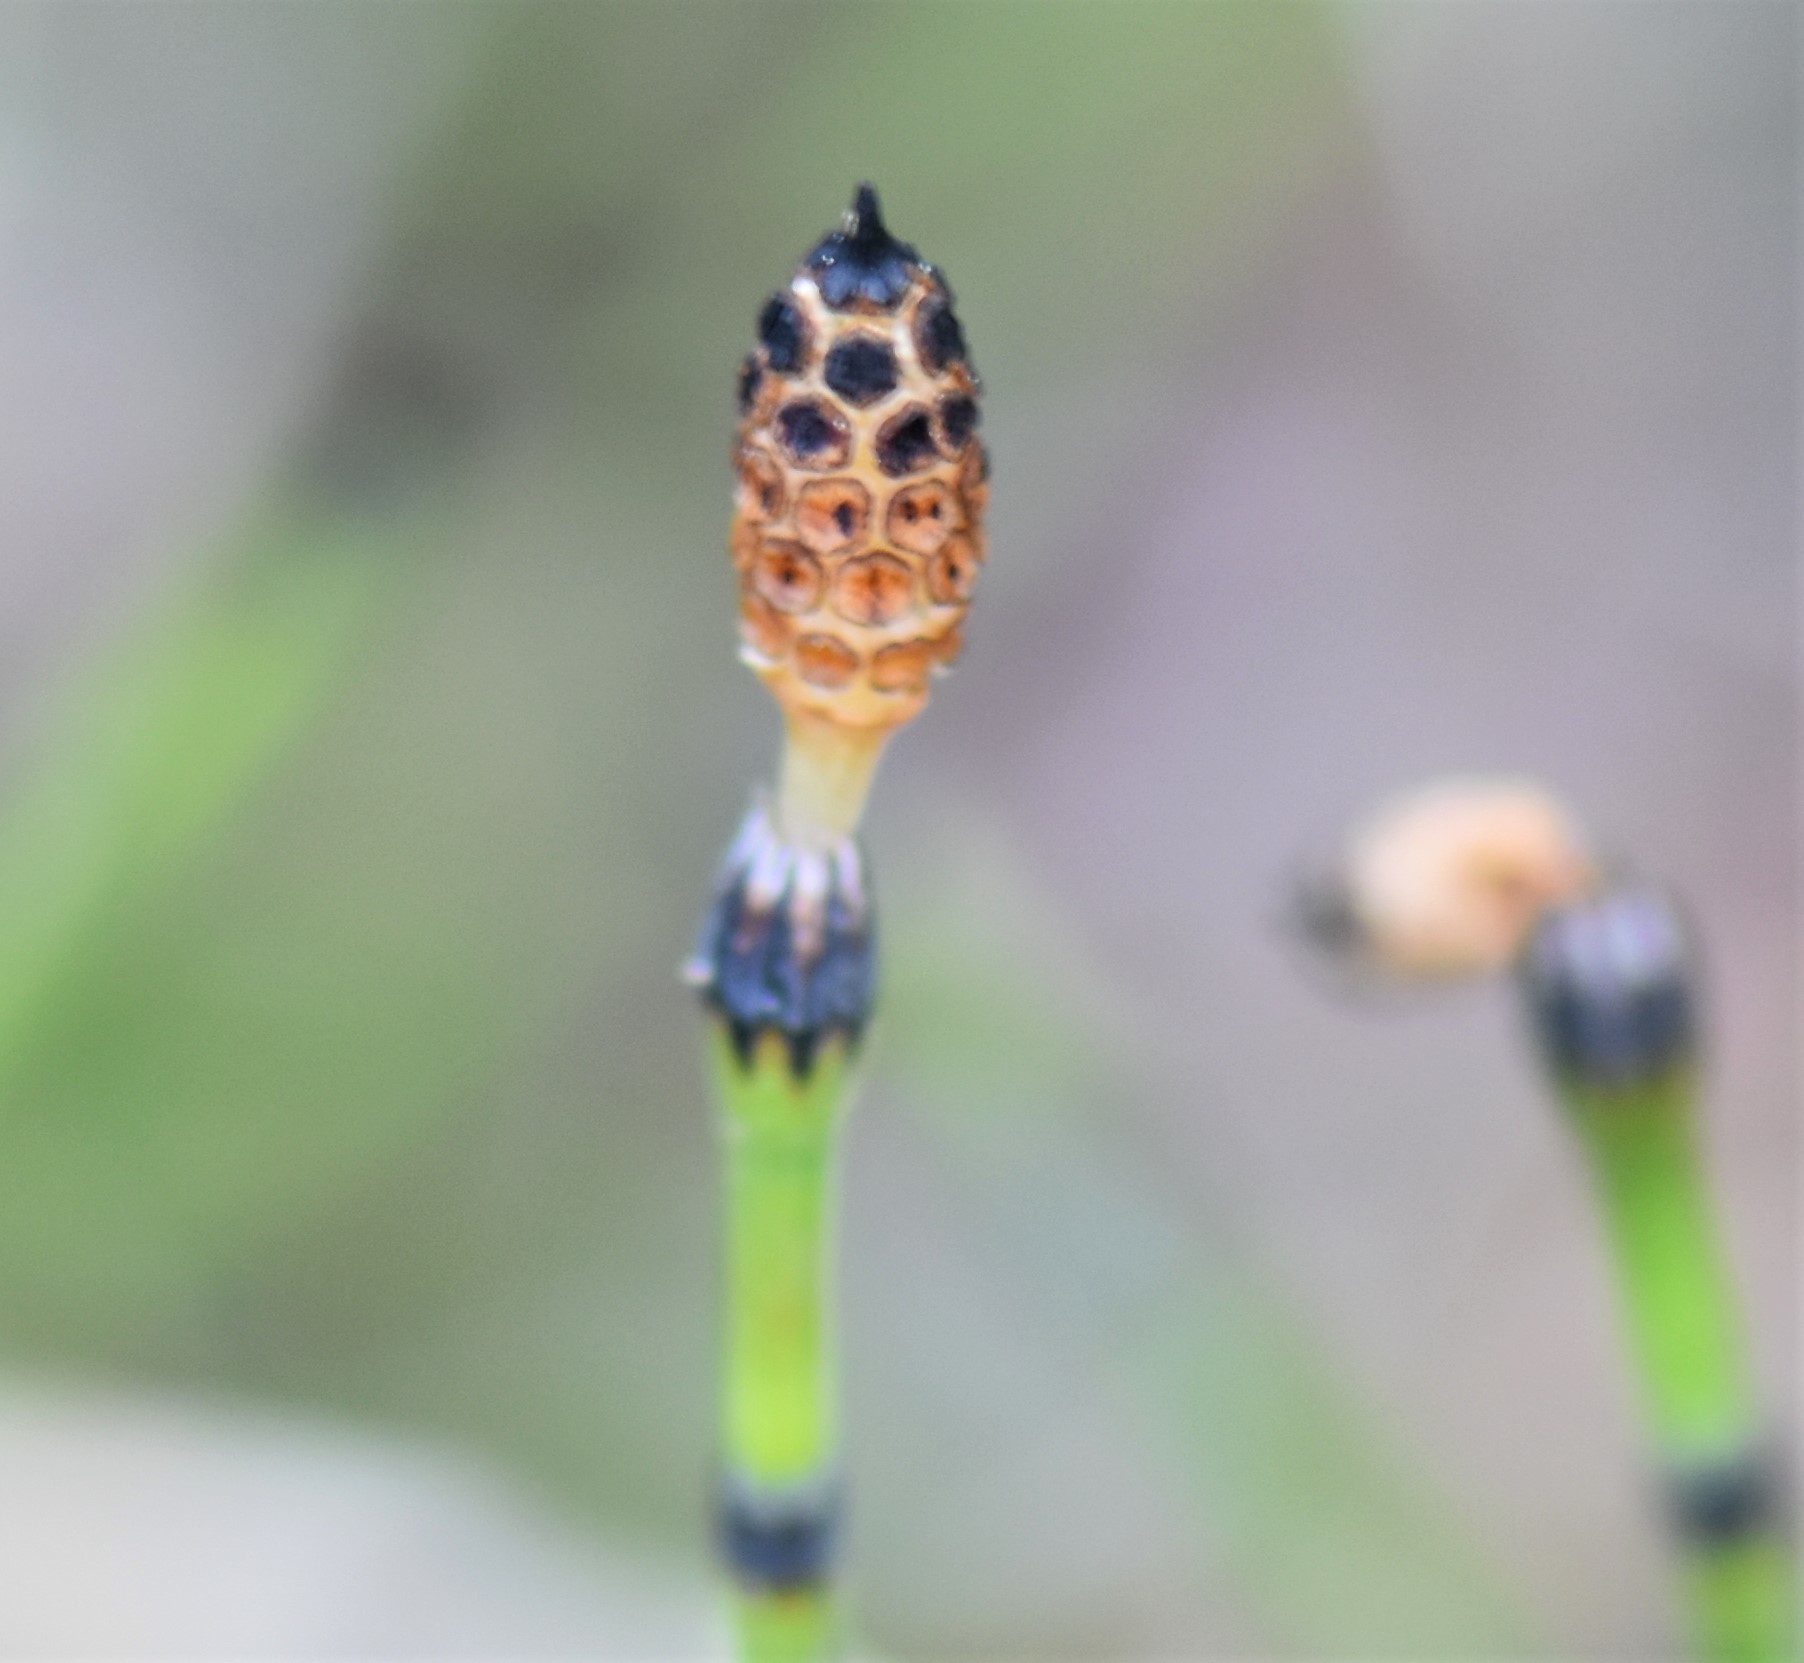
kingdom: Plantae
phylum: Tracheophyta
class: Polypodiopsida
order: Equisetales
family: Equisetaceae
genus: Equisetum
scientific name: Equisetum variegatum
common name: Variegated horsetail
